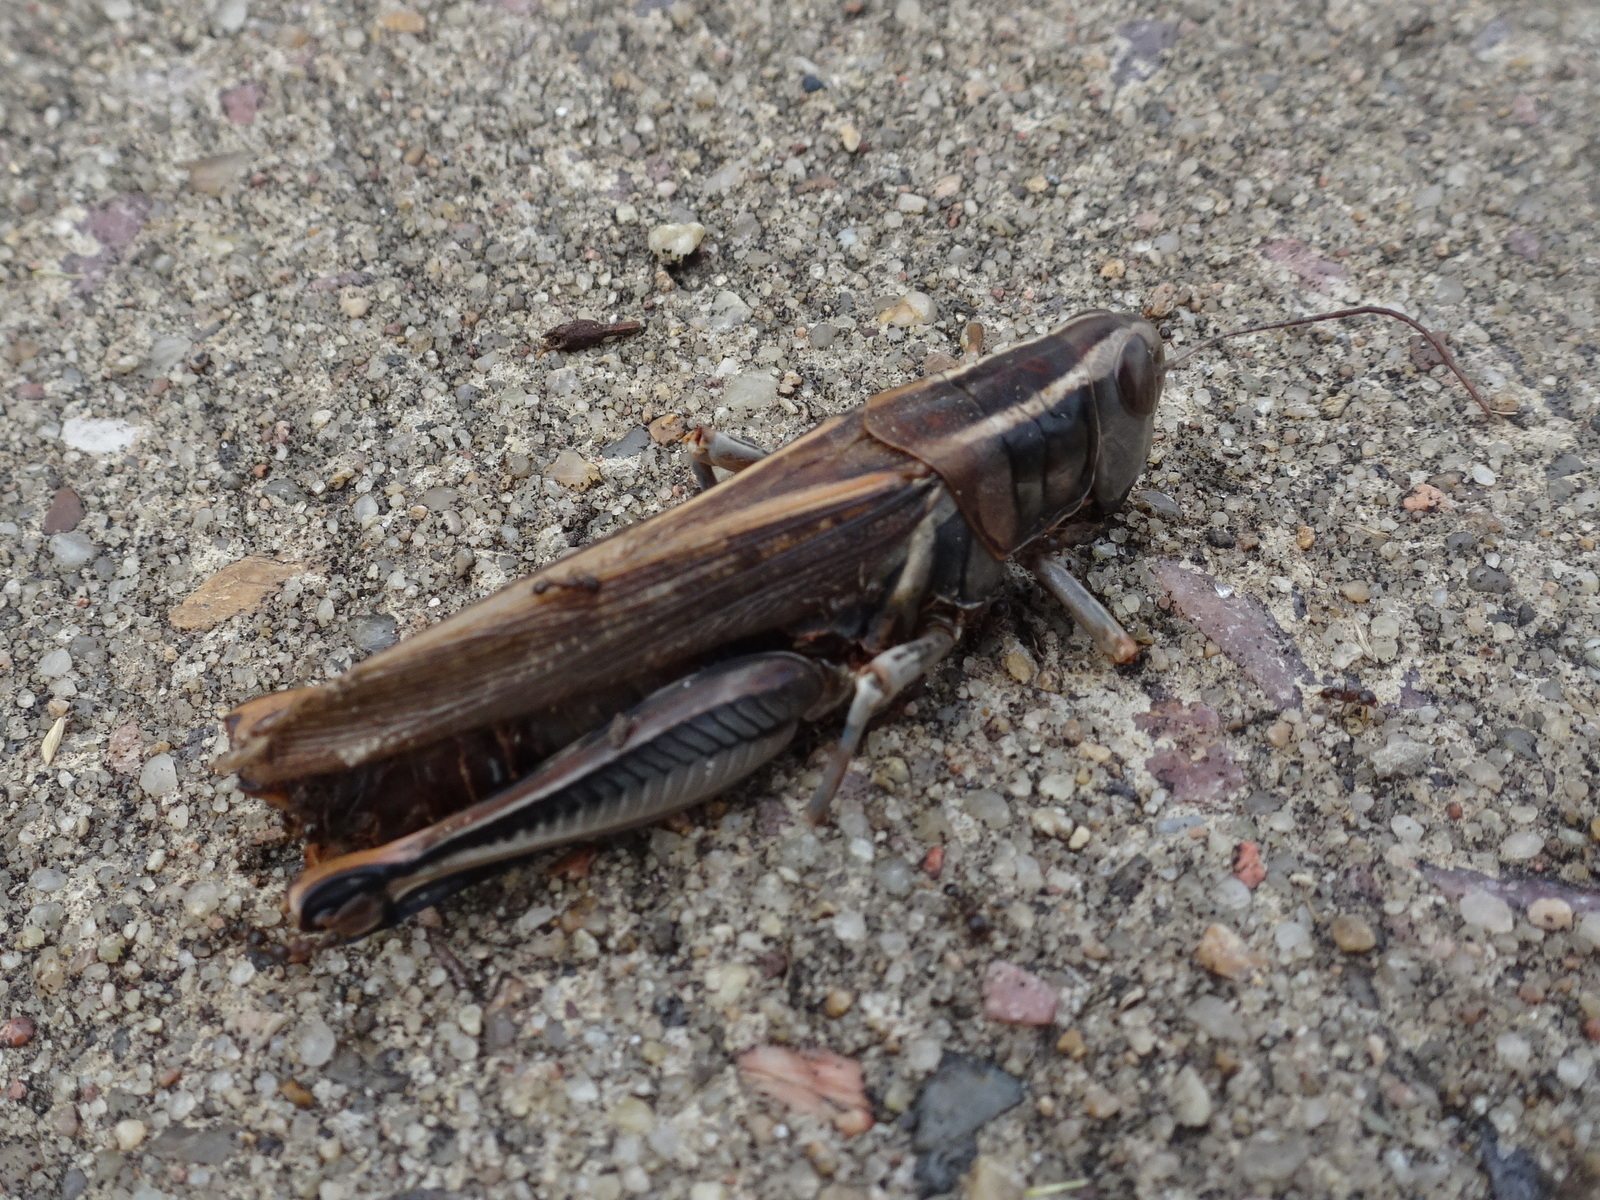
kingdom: Animalia
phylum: Arthropoda
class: Insecta
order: Orthoptera
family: Acrididae
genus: Melanoplus
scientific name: Melanoplus bivittatus
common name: Two-striped grasshopper
